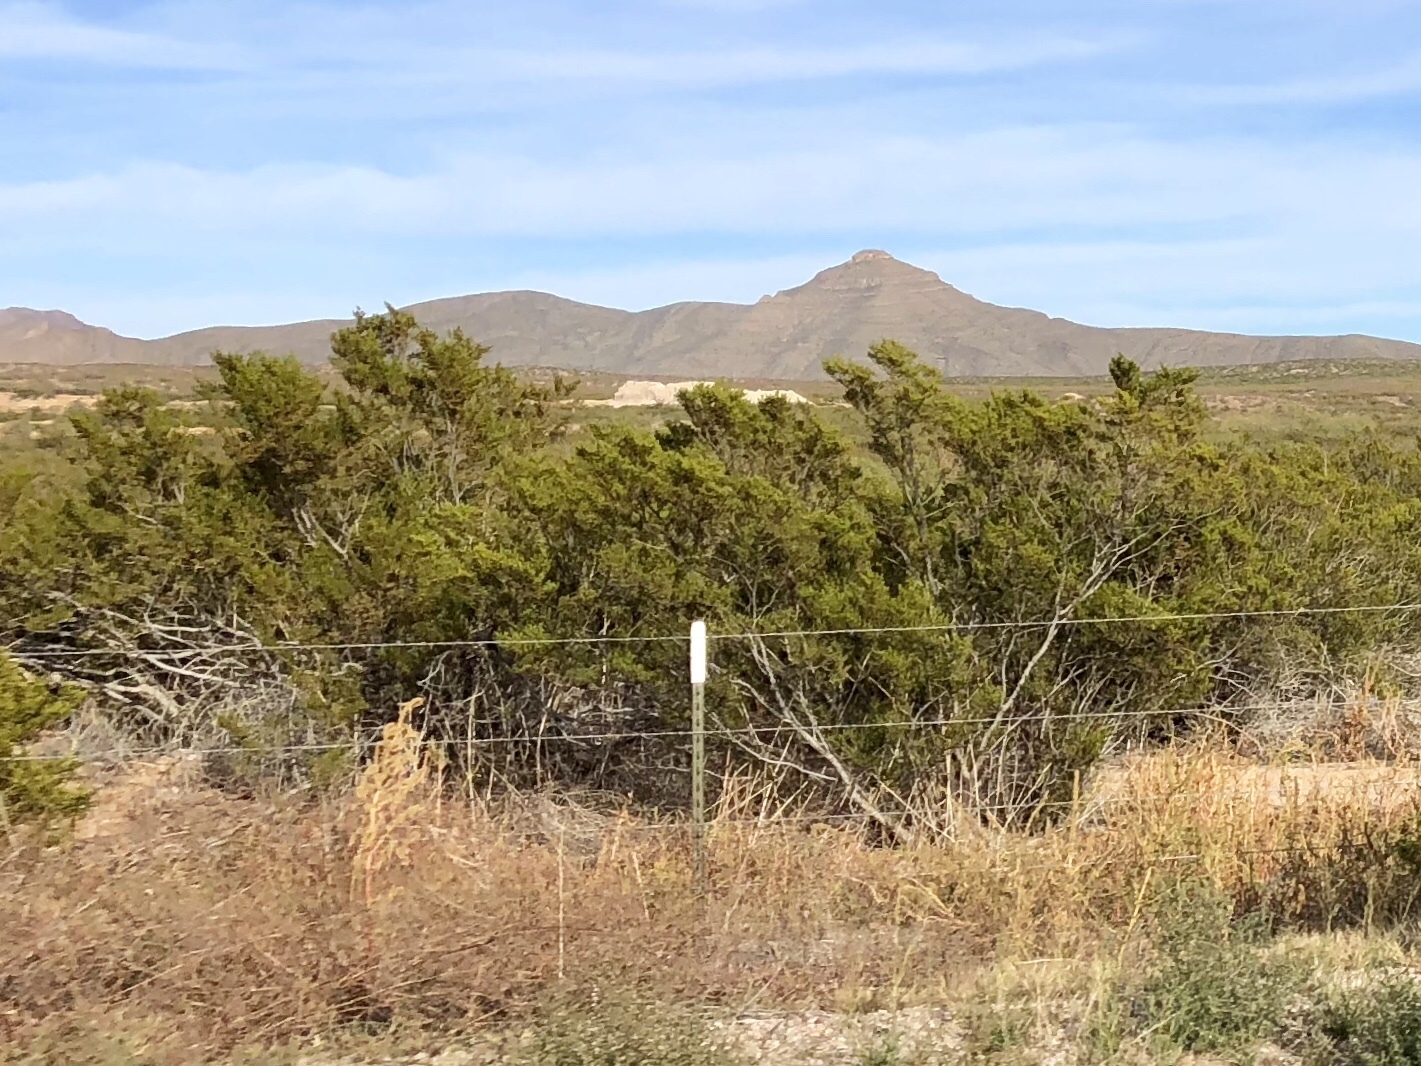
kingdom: Plantae
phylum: Tracheophyta
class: Magnoliopsida
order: Zygophyllales
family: Zygophyllaceae
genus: Larrea
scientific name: Larrea tridentata
